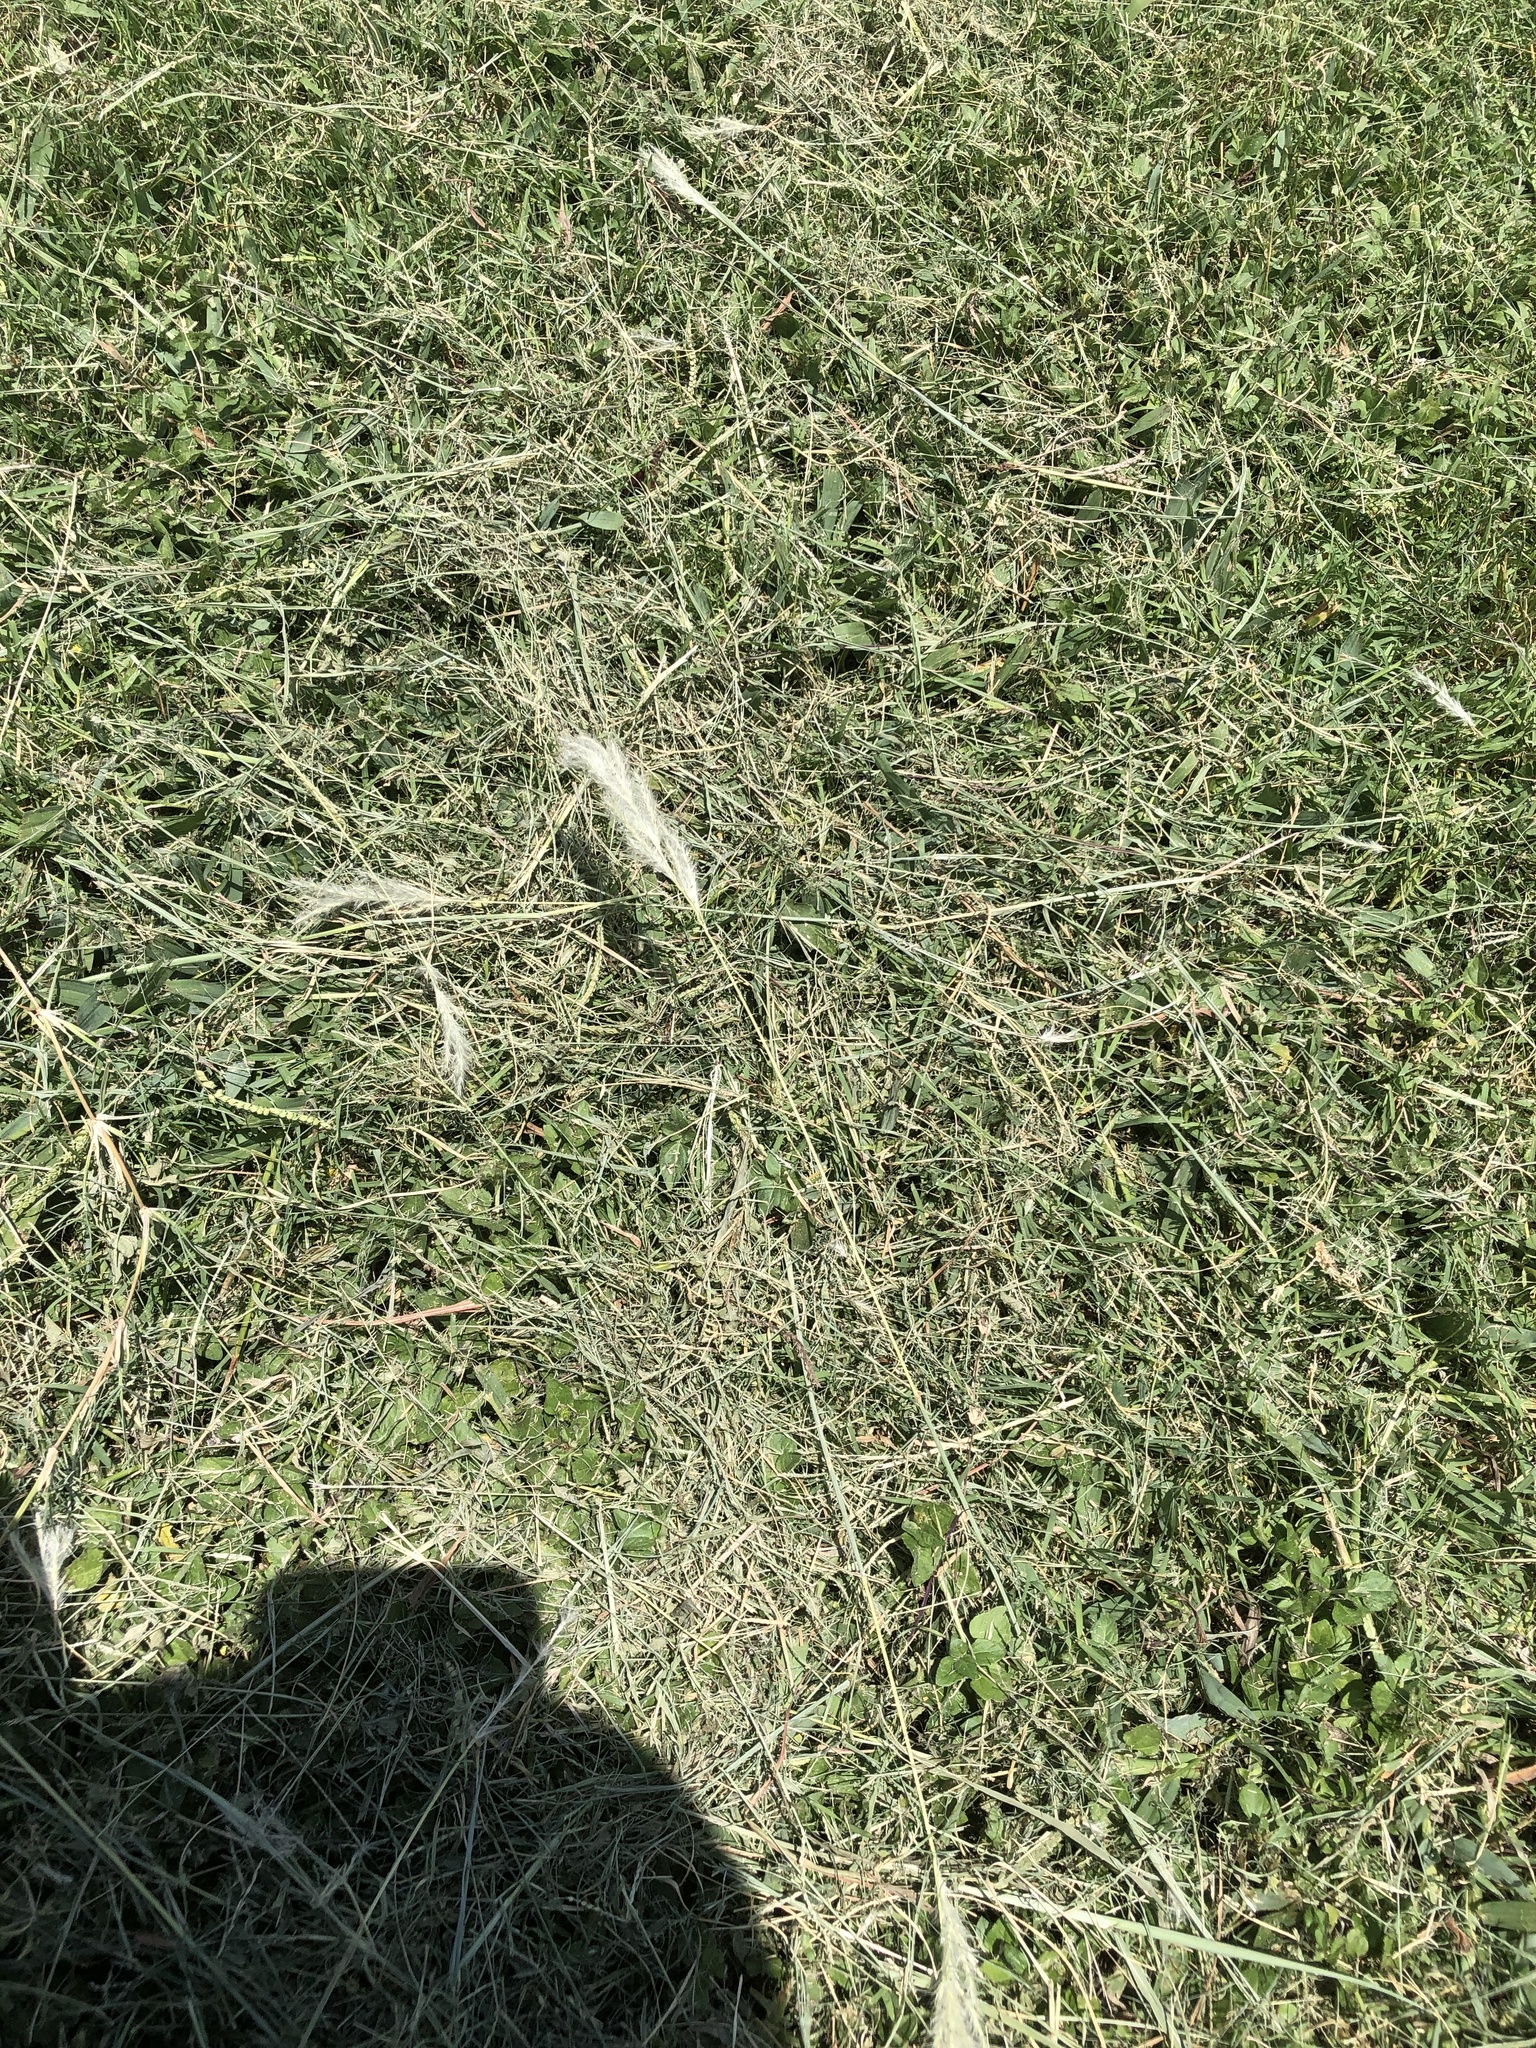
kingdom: Plantae
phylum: Tracheophyta
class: Liliopsida
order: Poales
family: Poaceae
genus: Bothriochloa
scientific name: Bothriochloa torreyana
